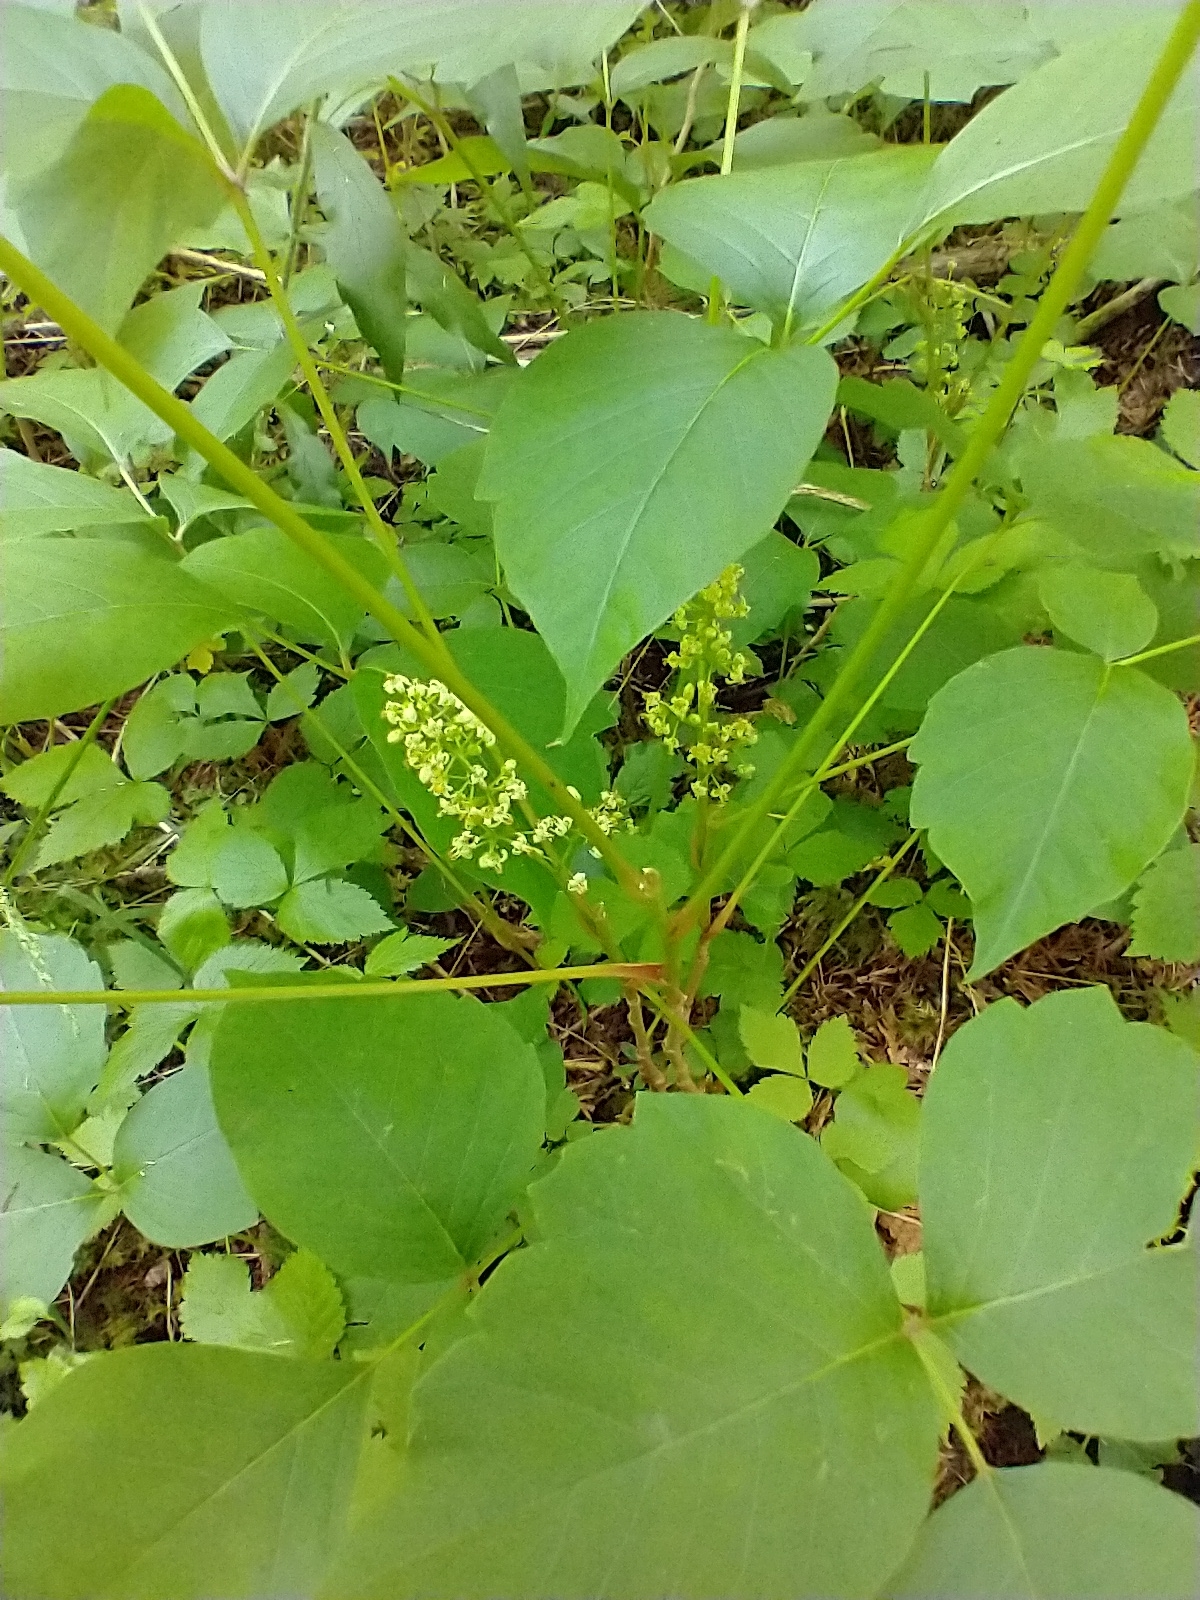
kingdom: Plantae
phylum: Tracheophyta
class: Magnoliopsida
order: Sapindales
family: Anacardiaceae
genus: Toxicodendron
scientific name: Toxicodendron radicans
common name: Poison ivy
